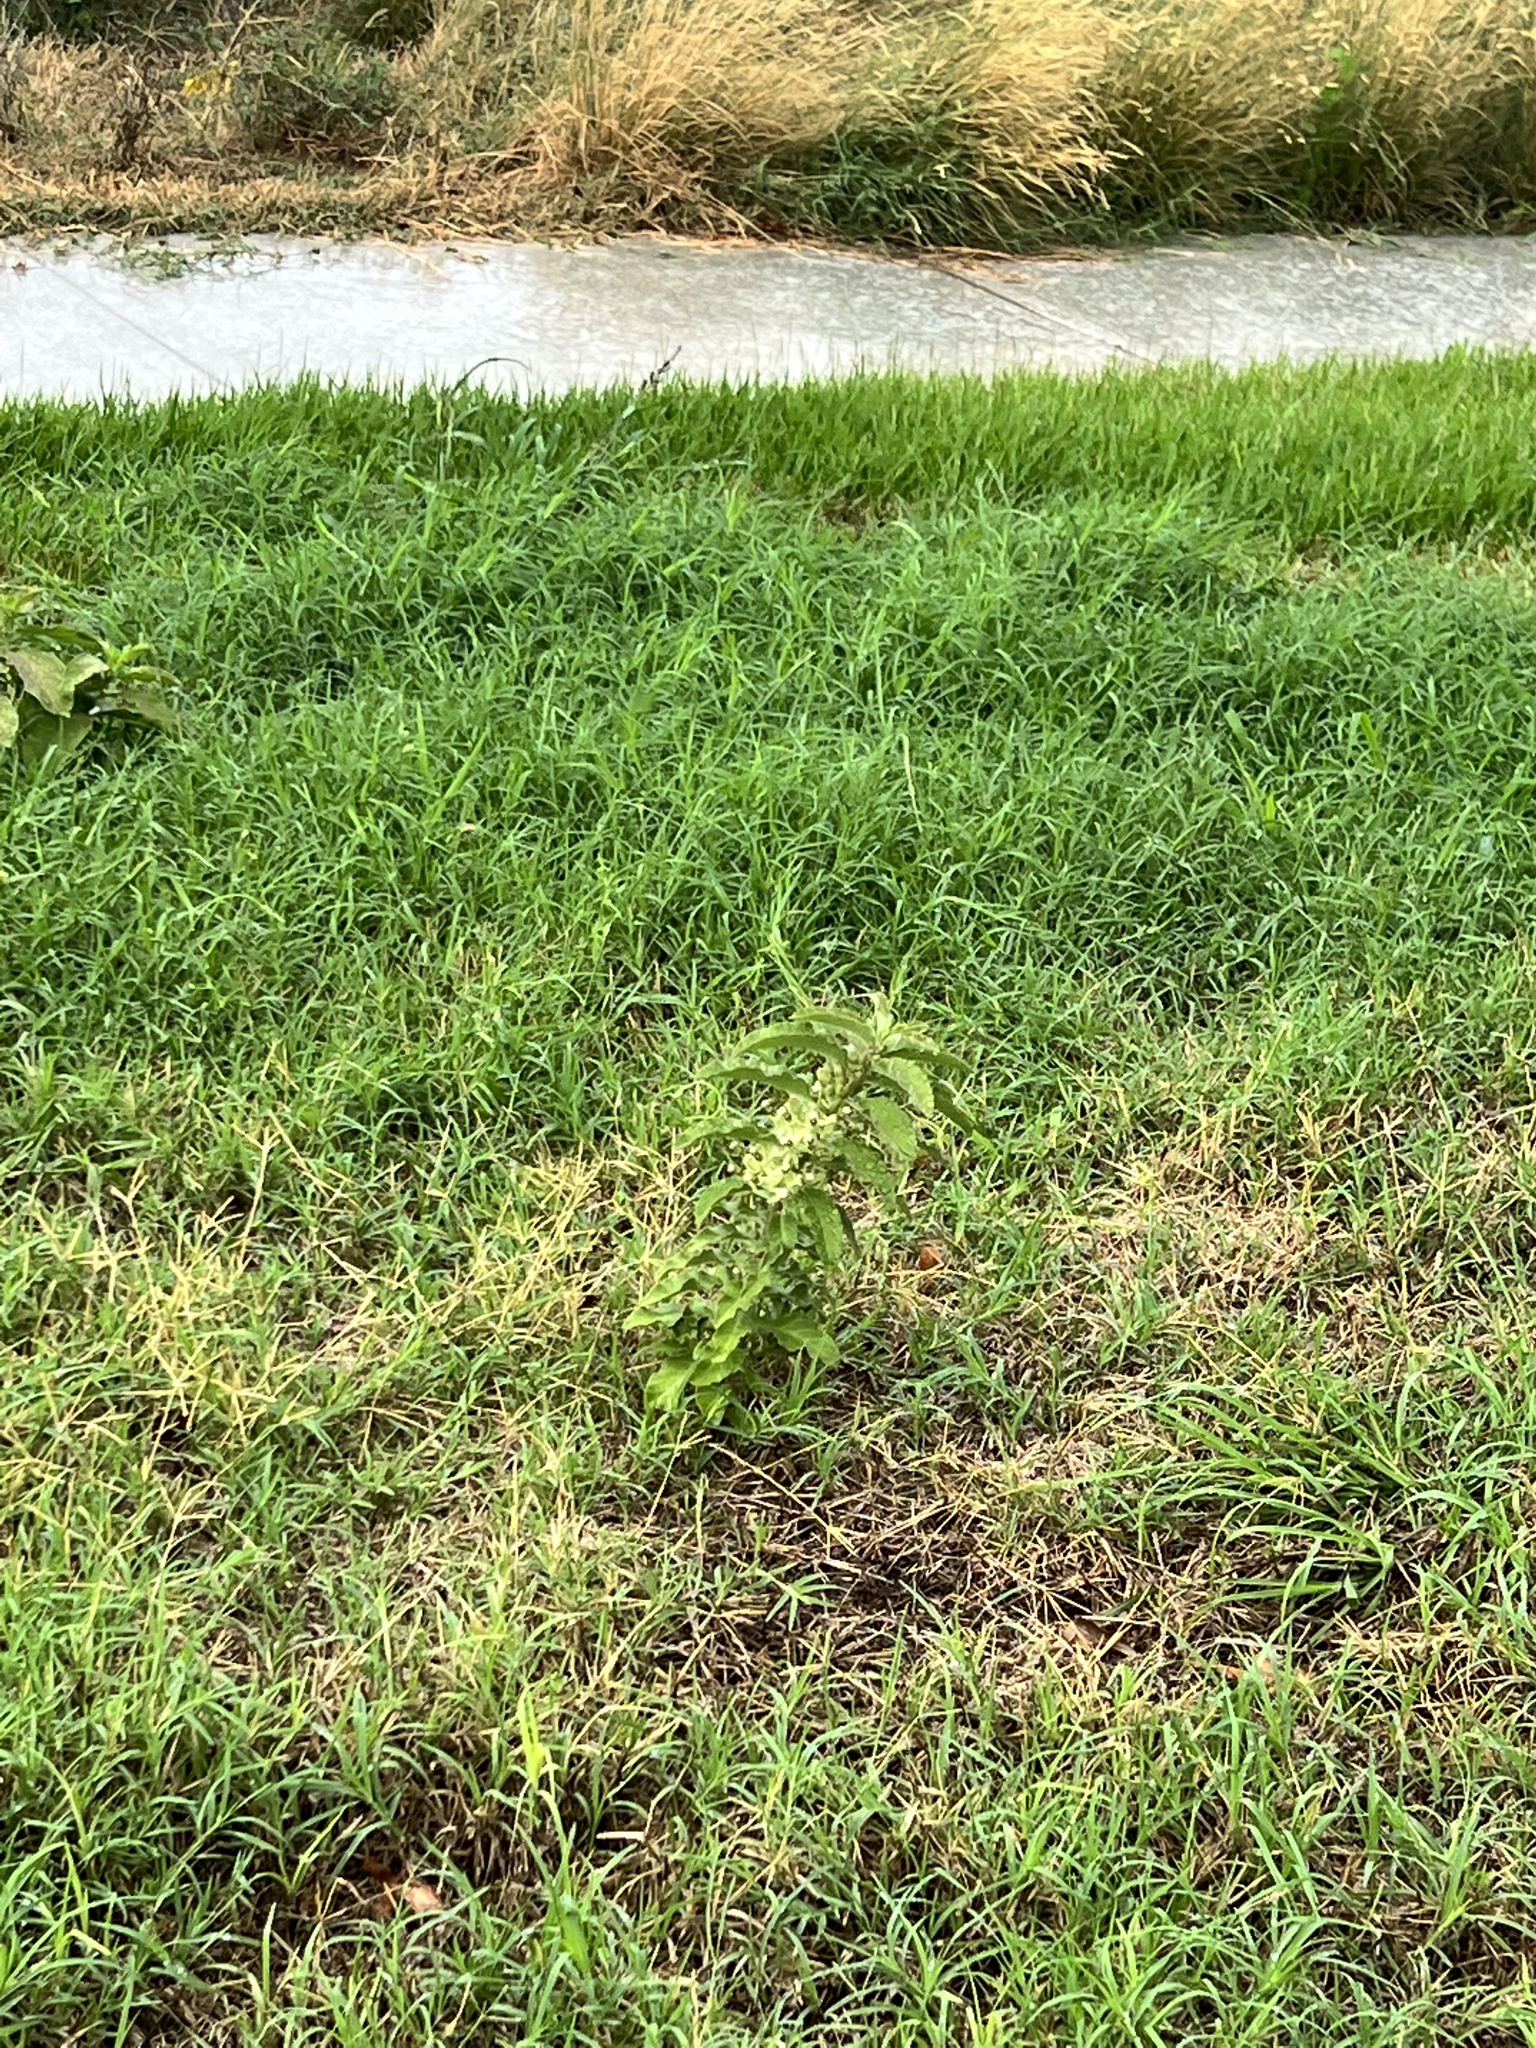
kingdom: Plantae
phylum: Tracheophyta
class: Magnoliopsida
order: Gentianales
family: Apocynaceae
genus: Asclepias
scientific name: Asclepias oenotheroides
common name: Zizotes milkweed
